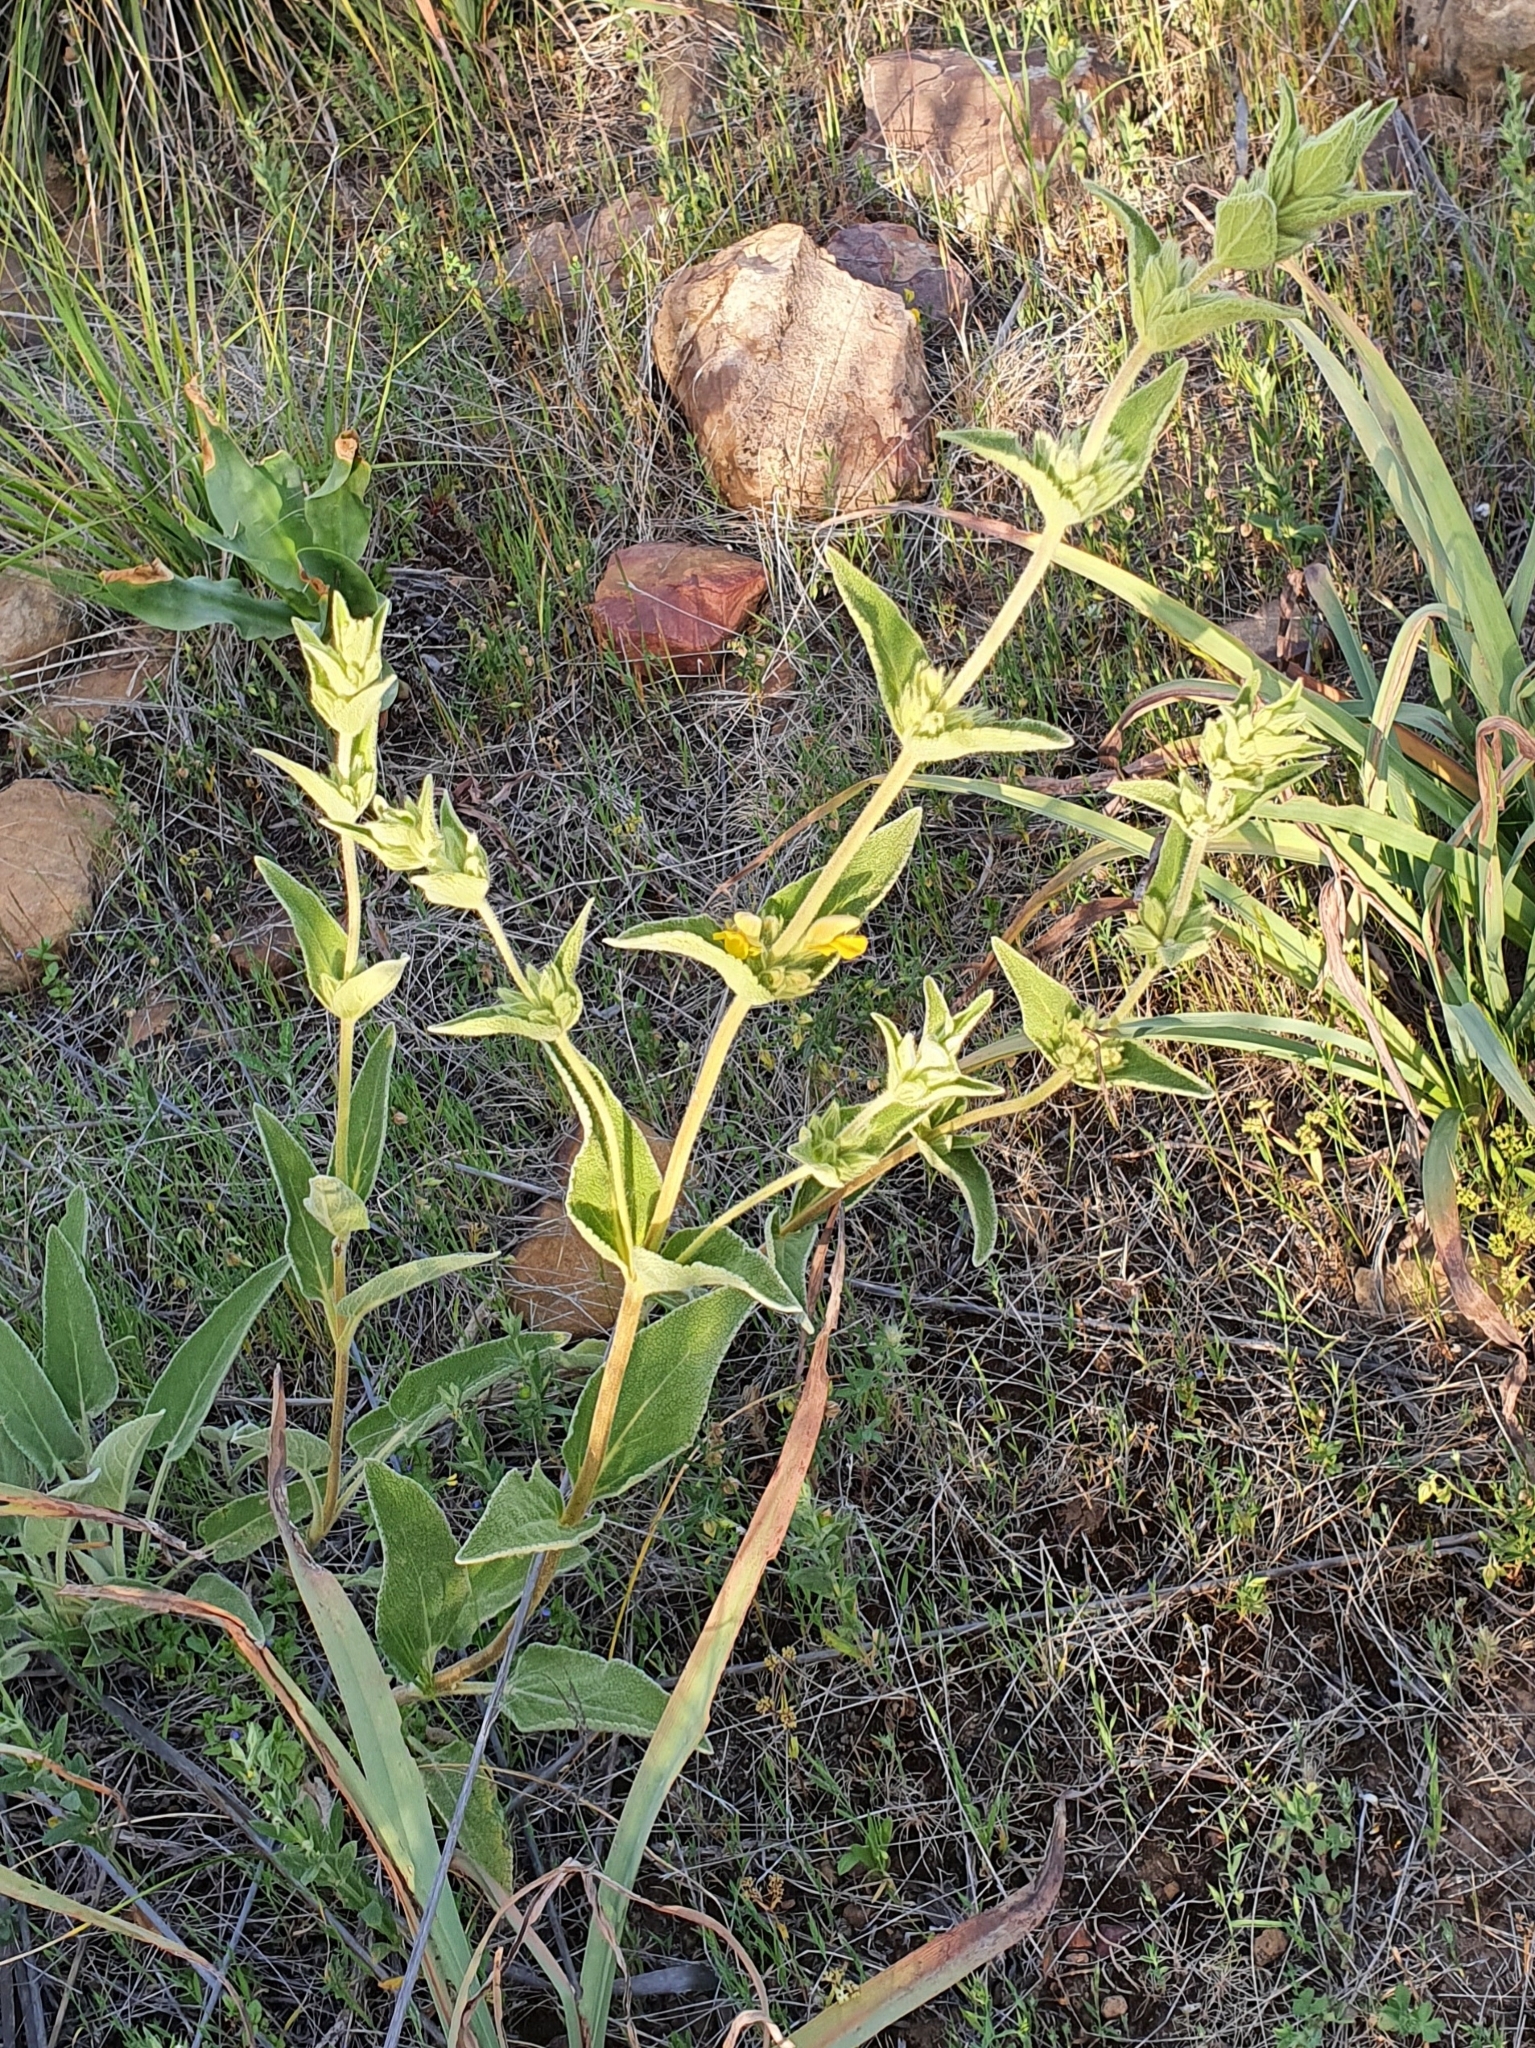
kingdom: Plantae
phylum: Tracheophyta
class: Magnoliopsida
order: Lamiales
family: Lamiaceae
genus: Phlomis
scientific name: Phlomis crinita
